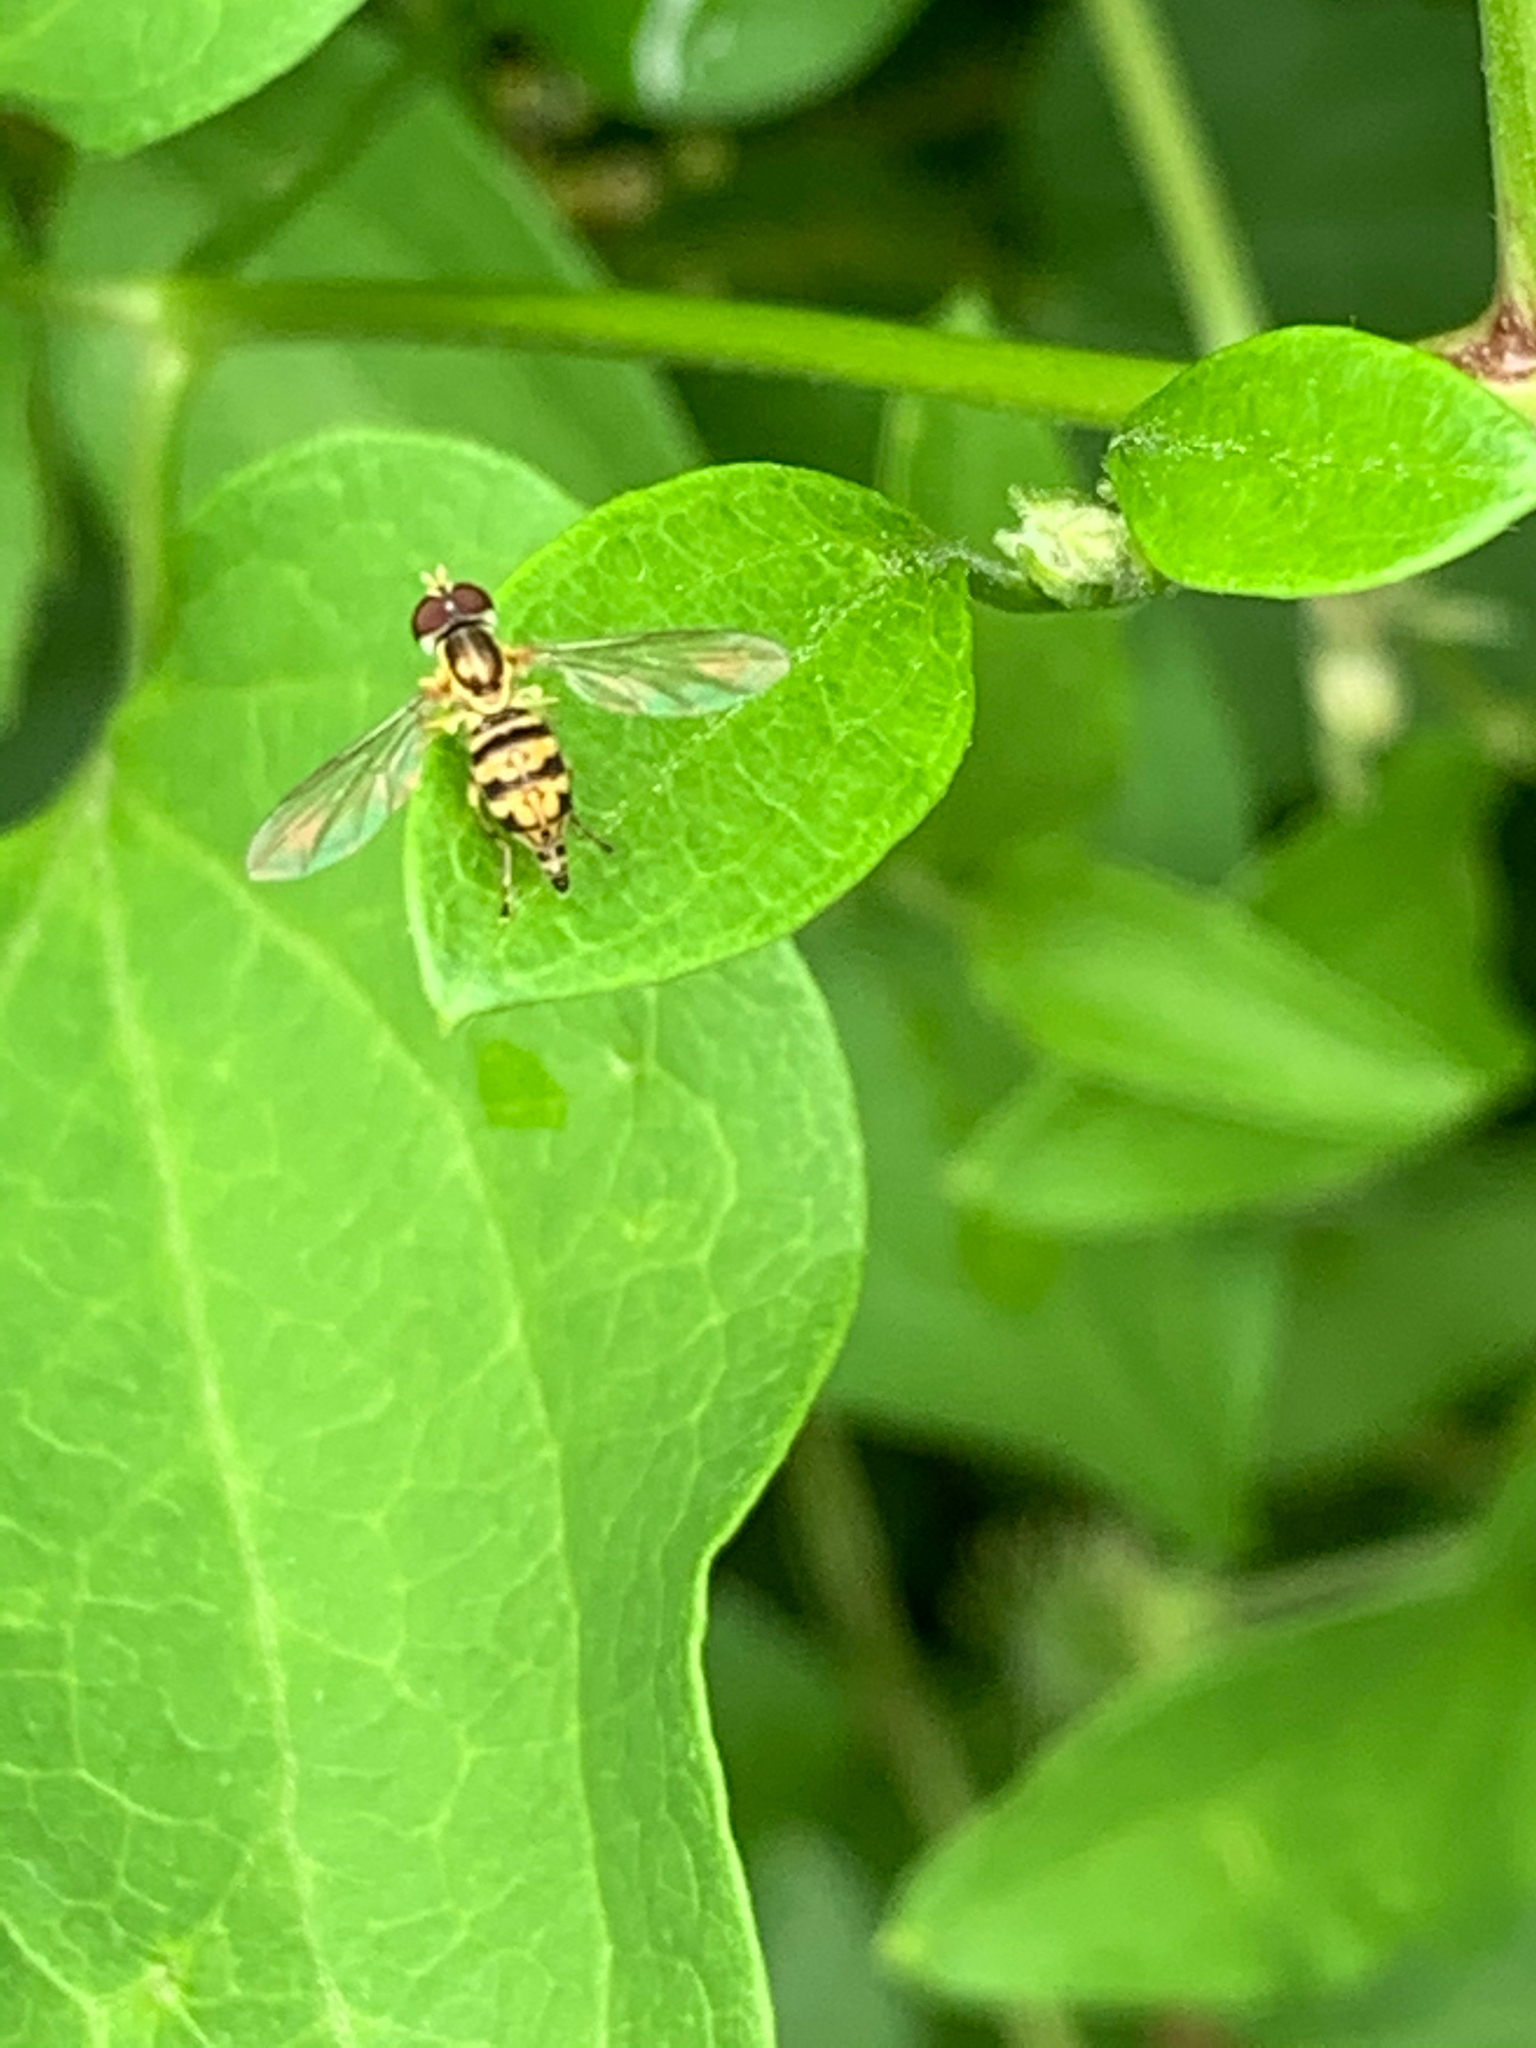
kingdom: Animalia
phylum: Arthropoda
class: Insecta
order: Diptera
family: Syrphidae
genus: Toxomerus
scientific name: Toxomerus geminatus
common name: Eastern calligrapher
